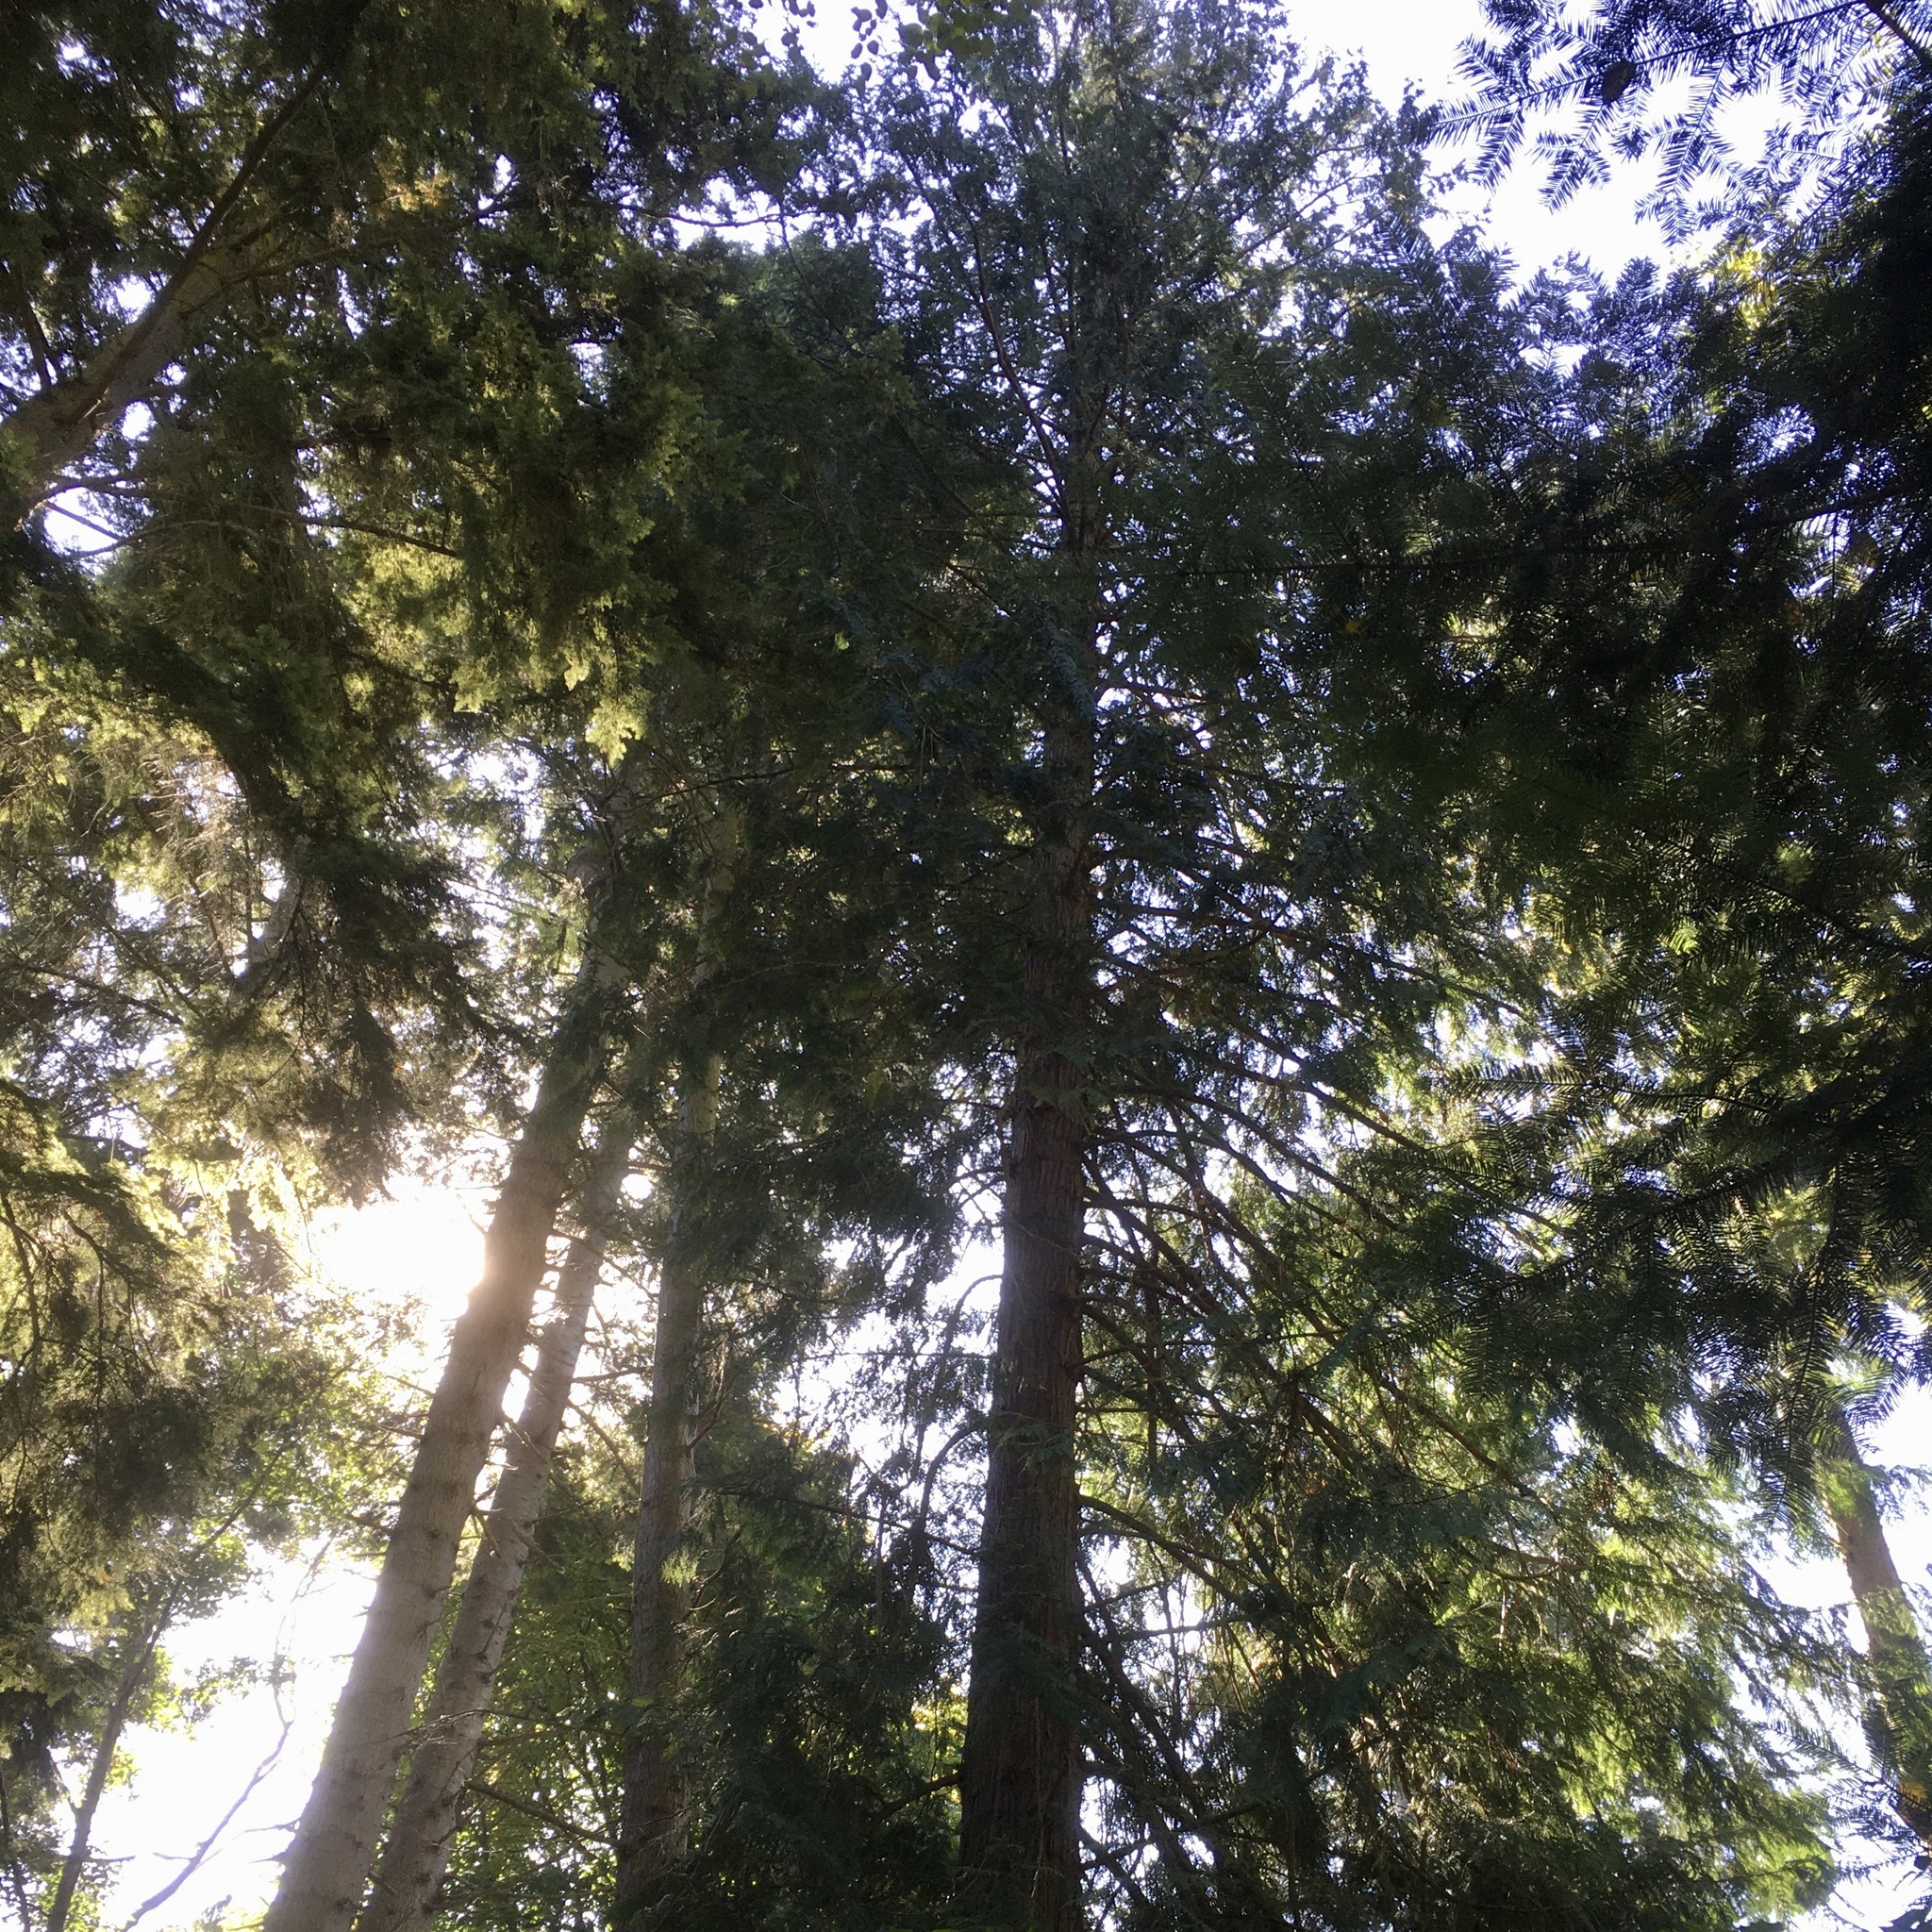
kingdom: Plantae
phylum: Tracheophyta
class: Pinopsida
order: Pinales
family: Cupressaceae
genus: Thuja
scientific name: Thuja plicata
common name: Western red-cedar
